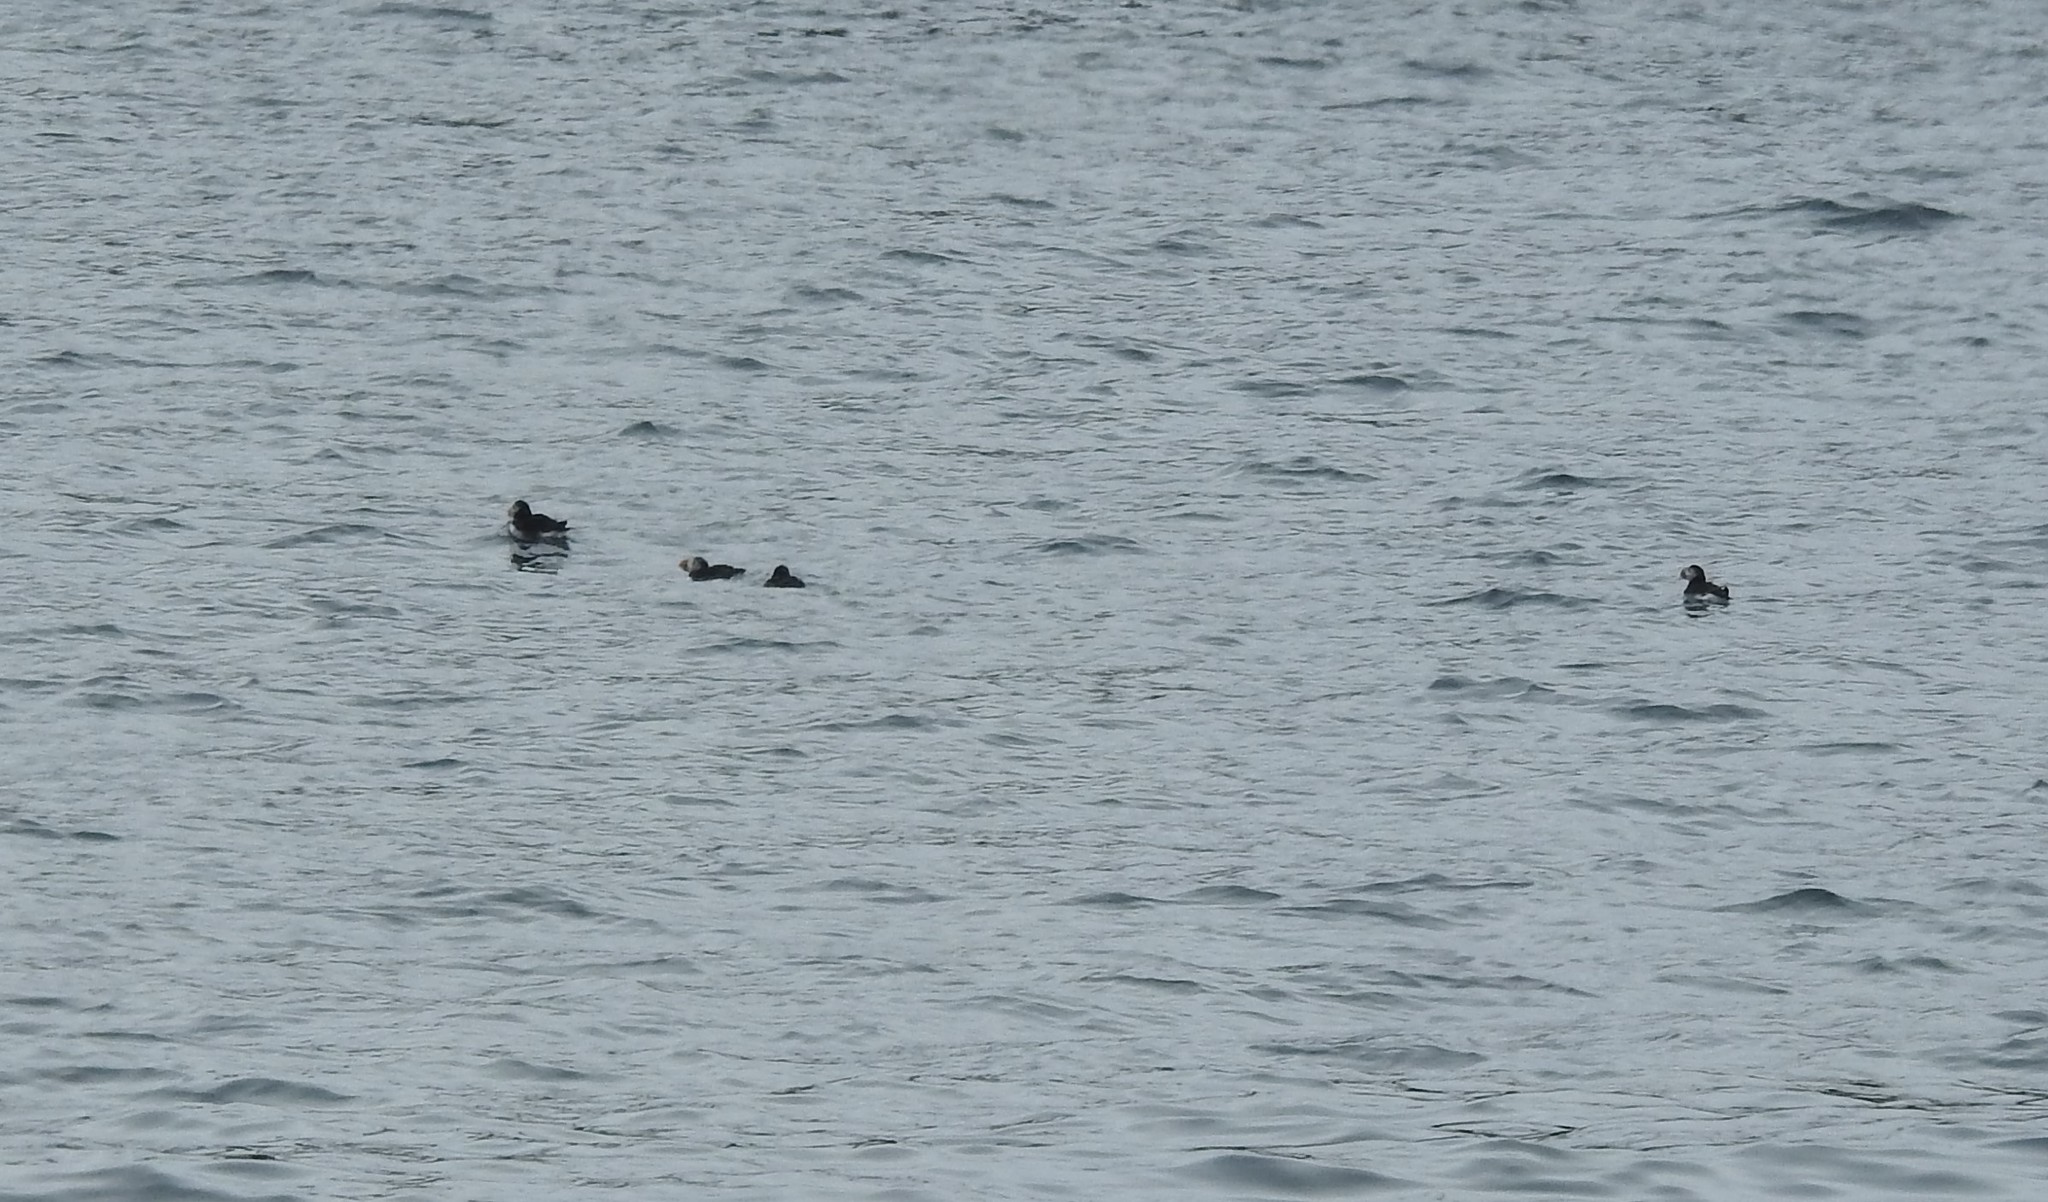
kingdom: Animalia
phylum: Chordata
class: Aves
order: Charadriiformes
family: Alcidae
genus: Fratercula
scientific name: Fratercula arctica
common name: Atlantic puffin
